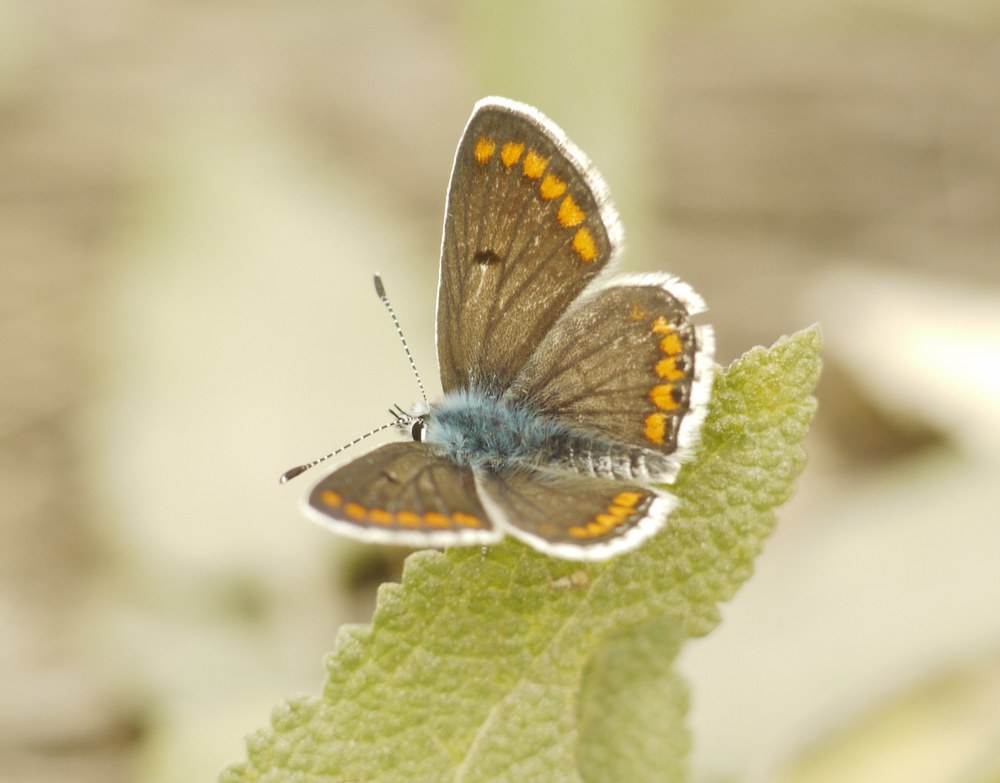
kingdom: Animalia
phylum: Arthropoda
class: Insecta
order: Lepidoptera
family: Lycaenidae
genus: Aricia
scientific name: Aricia agestis
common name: Brown argus
